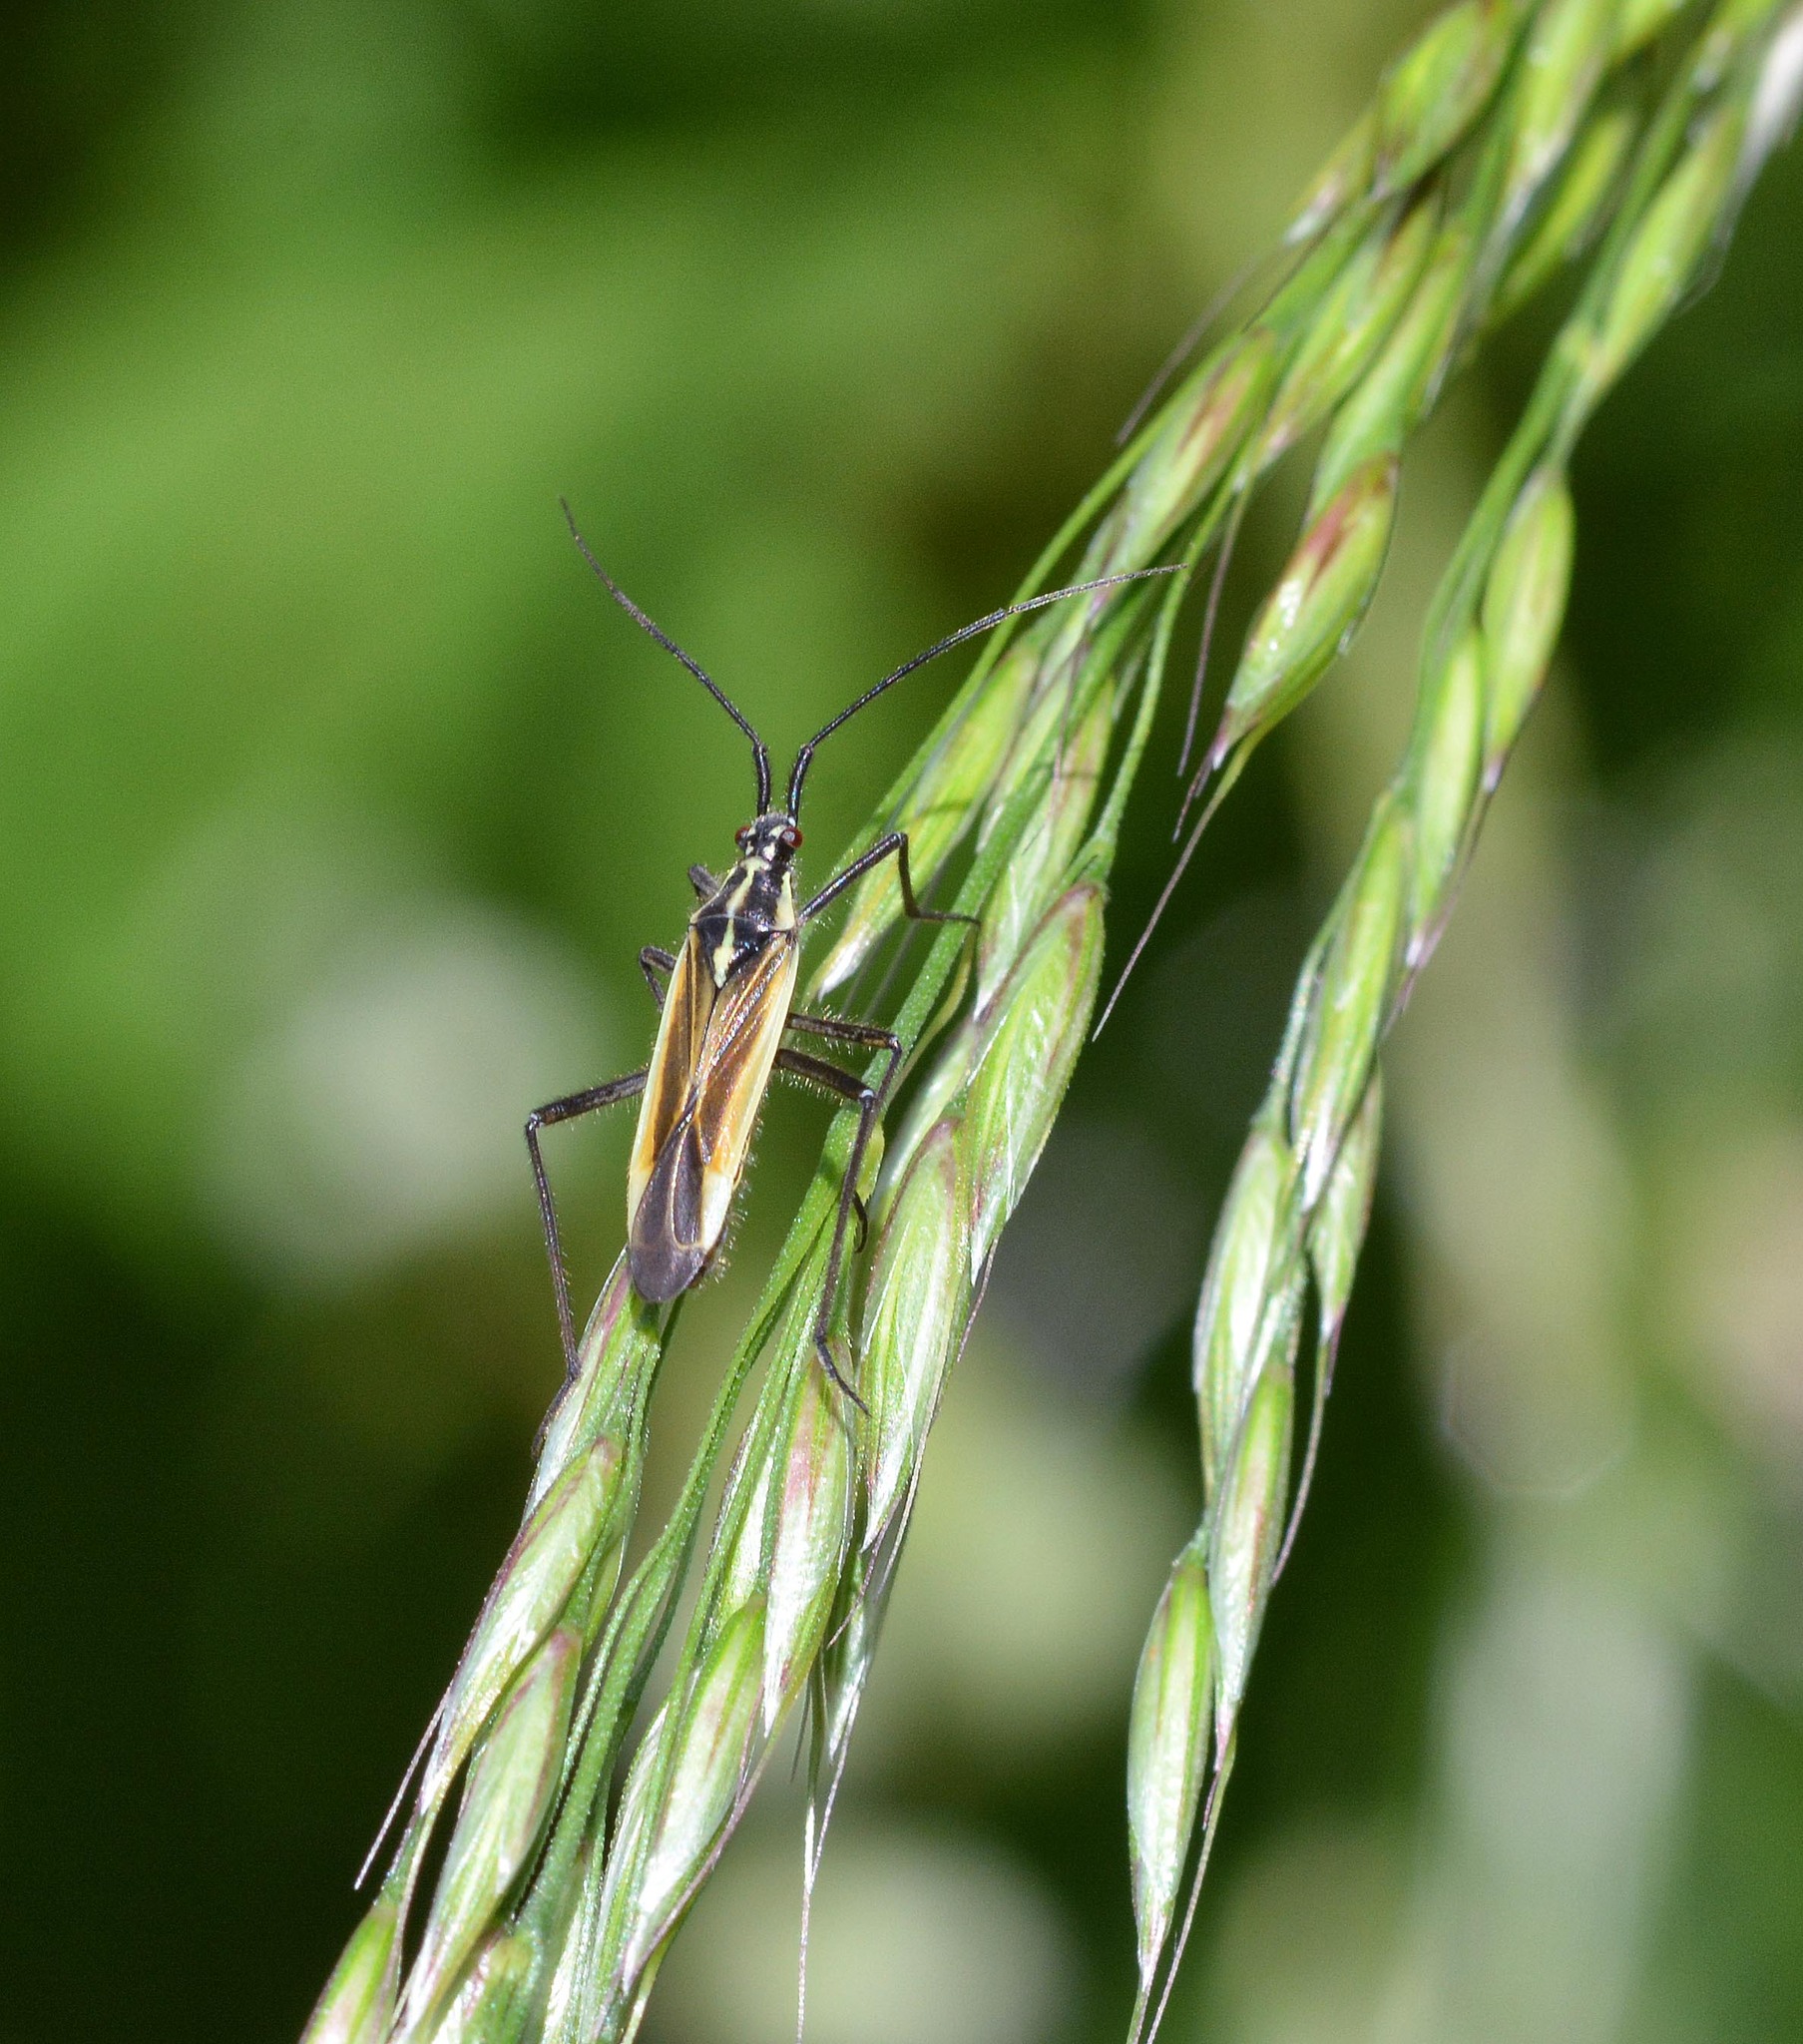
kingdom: Animalia
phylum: Arthropoda
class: Insecta
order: Hemiptera
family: Miridae
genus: Leptopterna
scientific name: Leptopterna dolabrata
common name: Meadow plant bug
